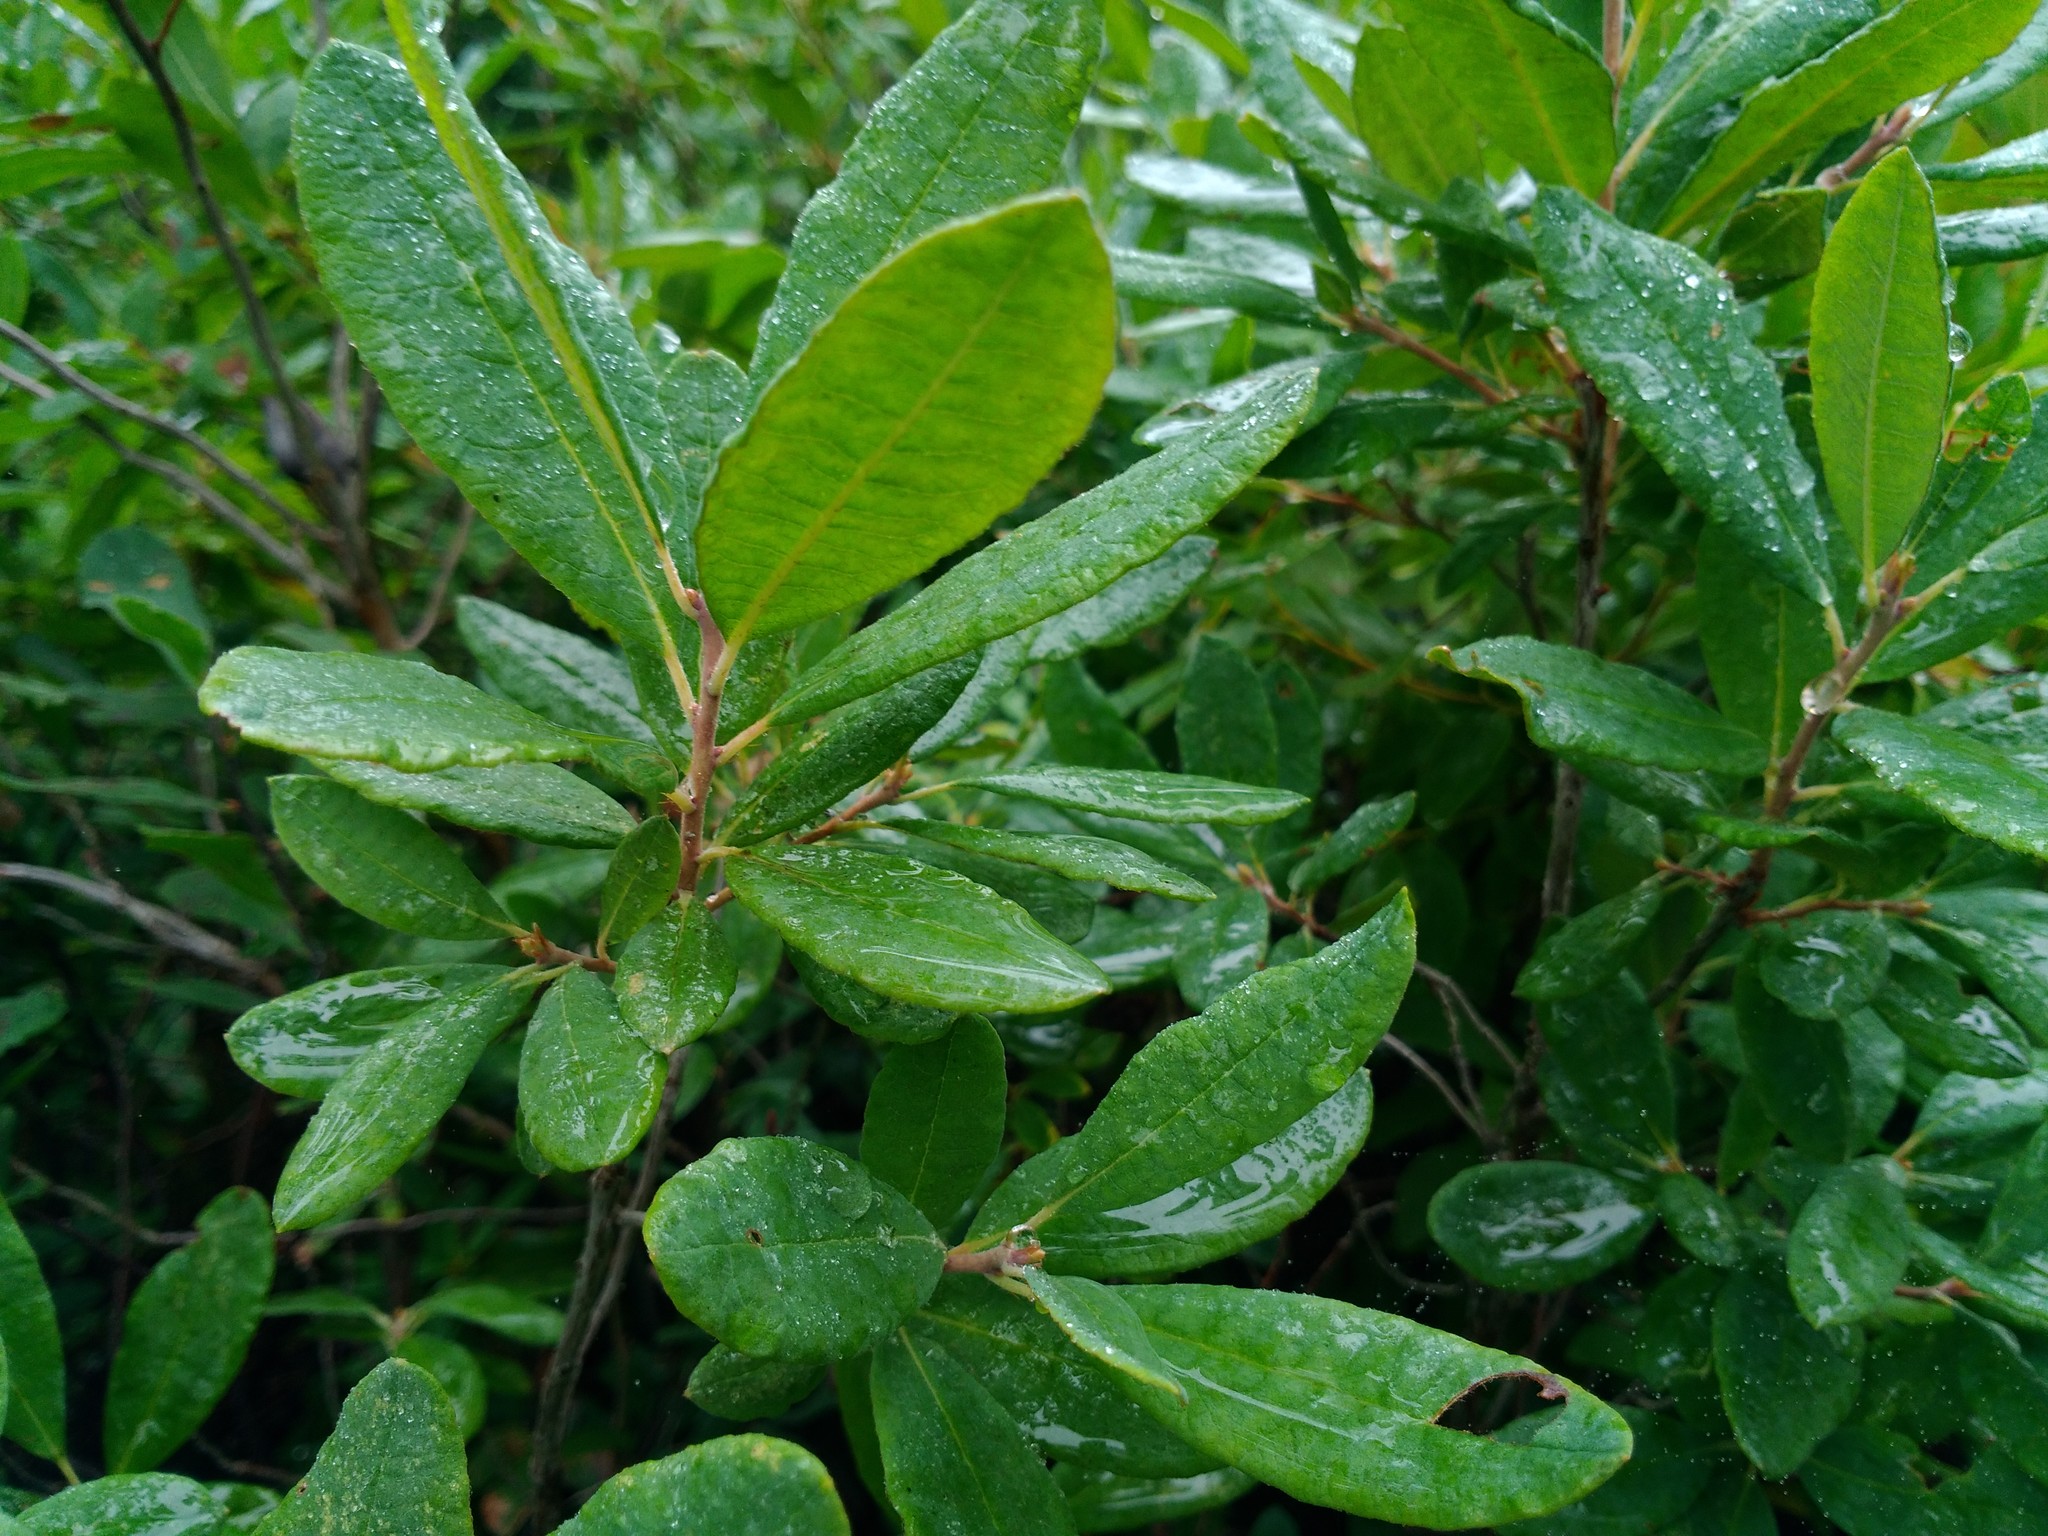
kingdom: Plantae
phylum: Tracheophyta
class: Magnoliopsida
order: Ericales
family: Ericaceae
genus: Kalmia
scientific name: Kalmia angustifolia
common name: Sheep-laurel
